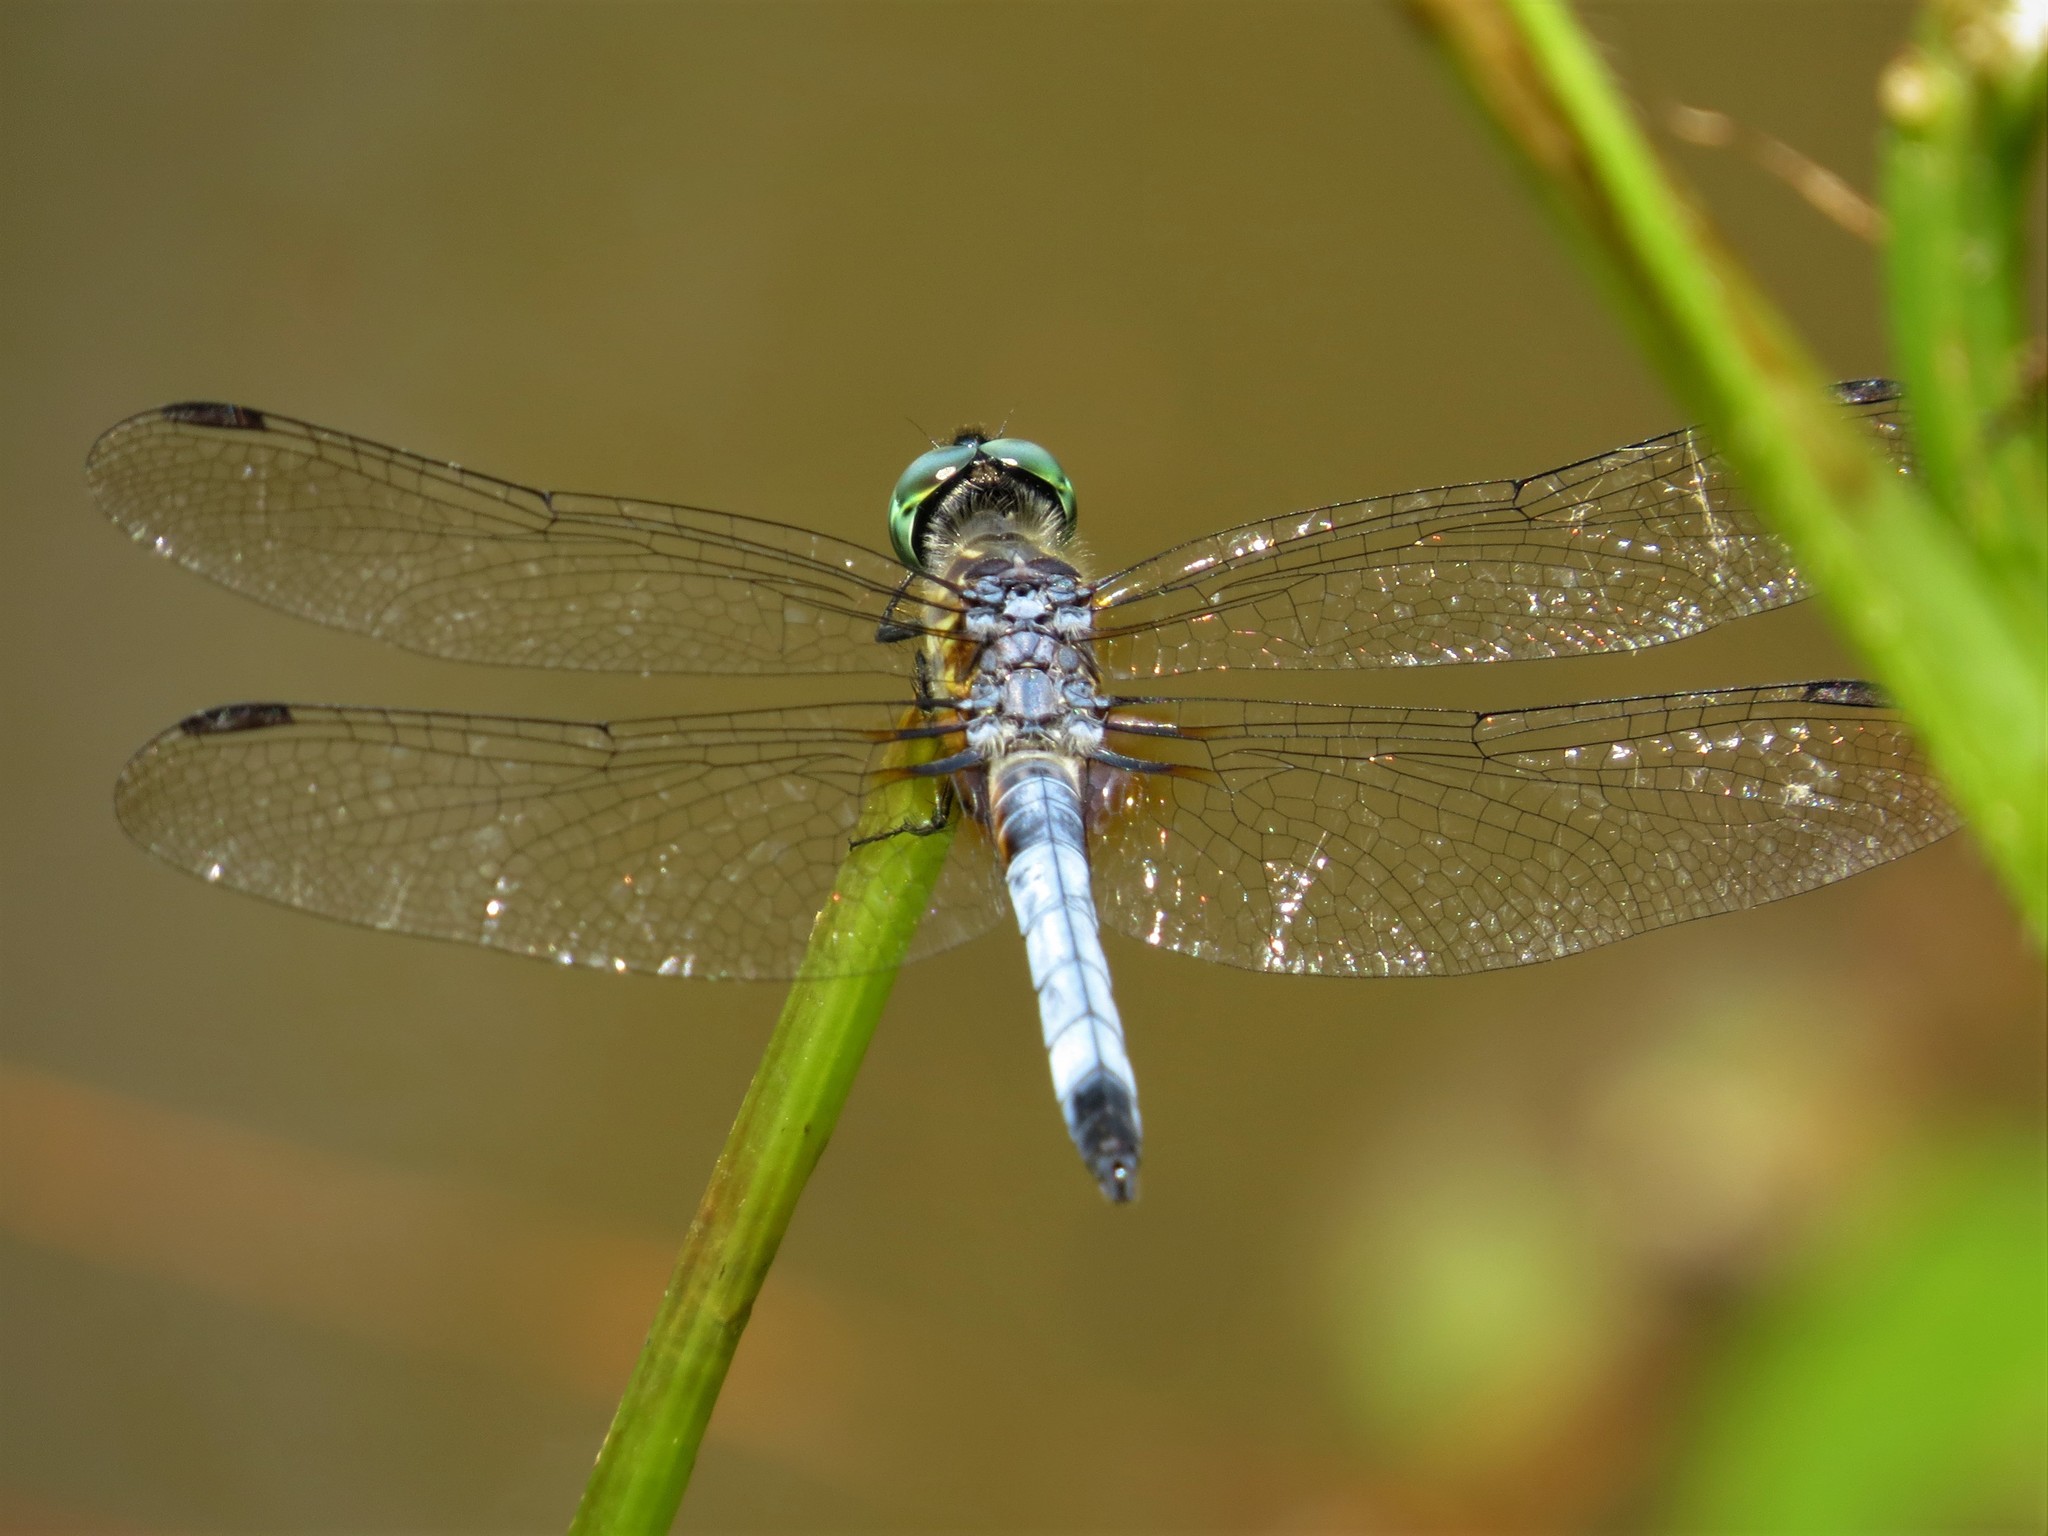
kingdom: Animalia
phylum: Arthropoda
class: Insecta
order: Odonata
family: Libellulidae
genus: Pachydiplax
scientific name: Pachydiplax longipennis
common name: Blue dasher
